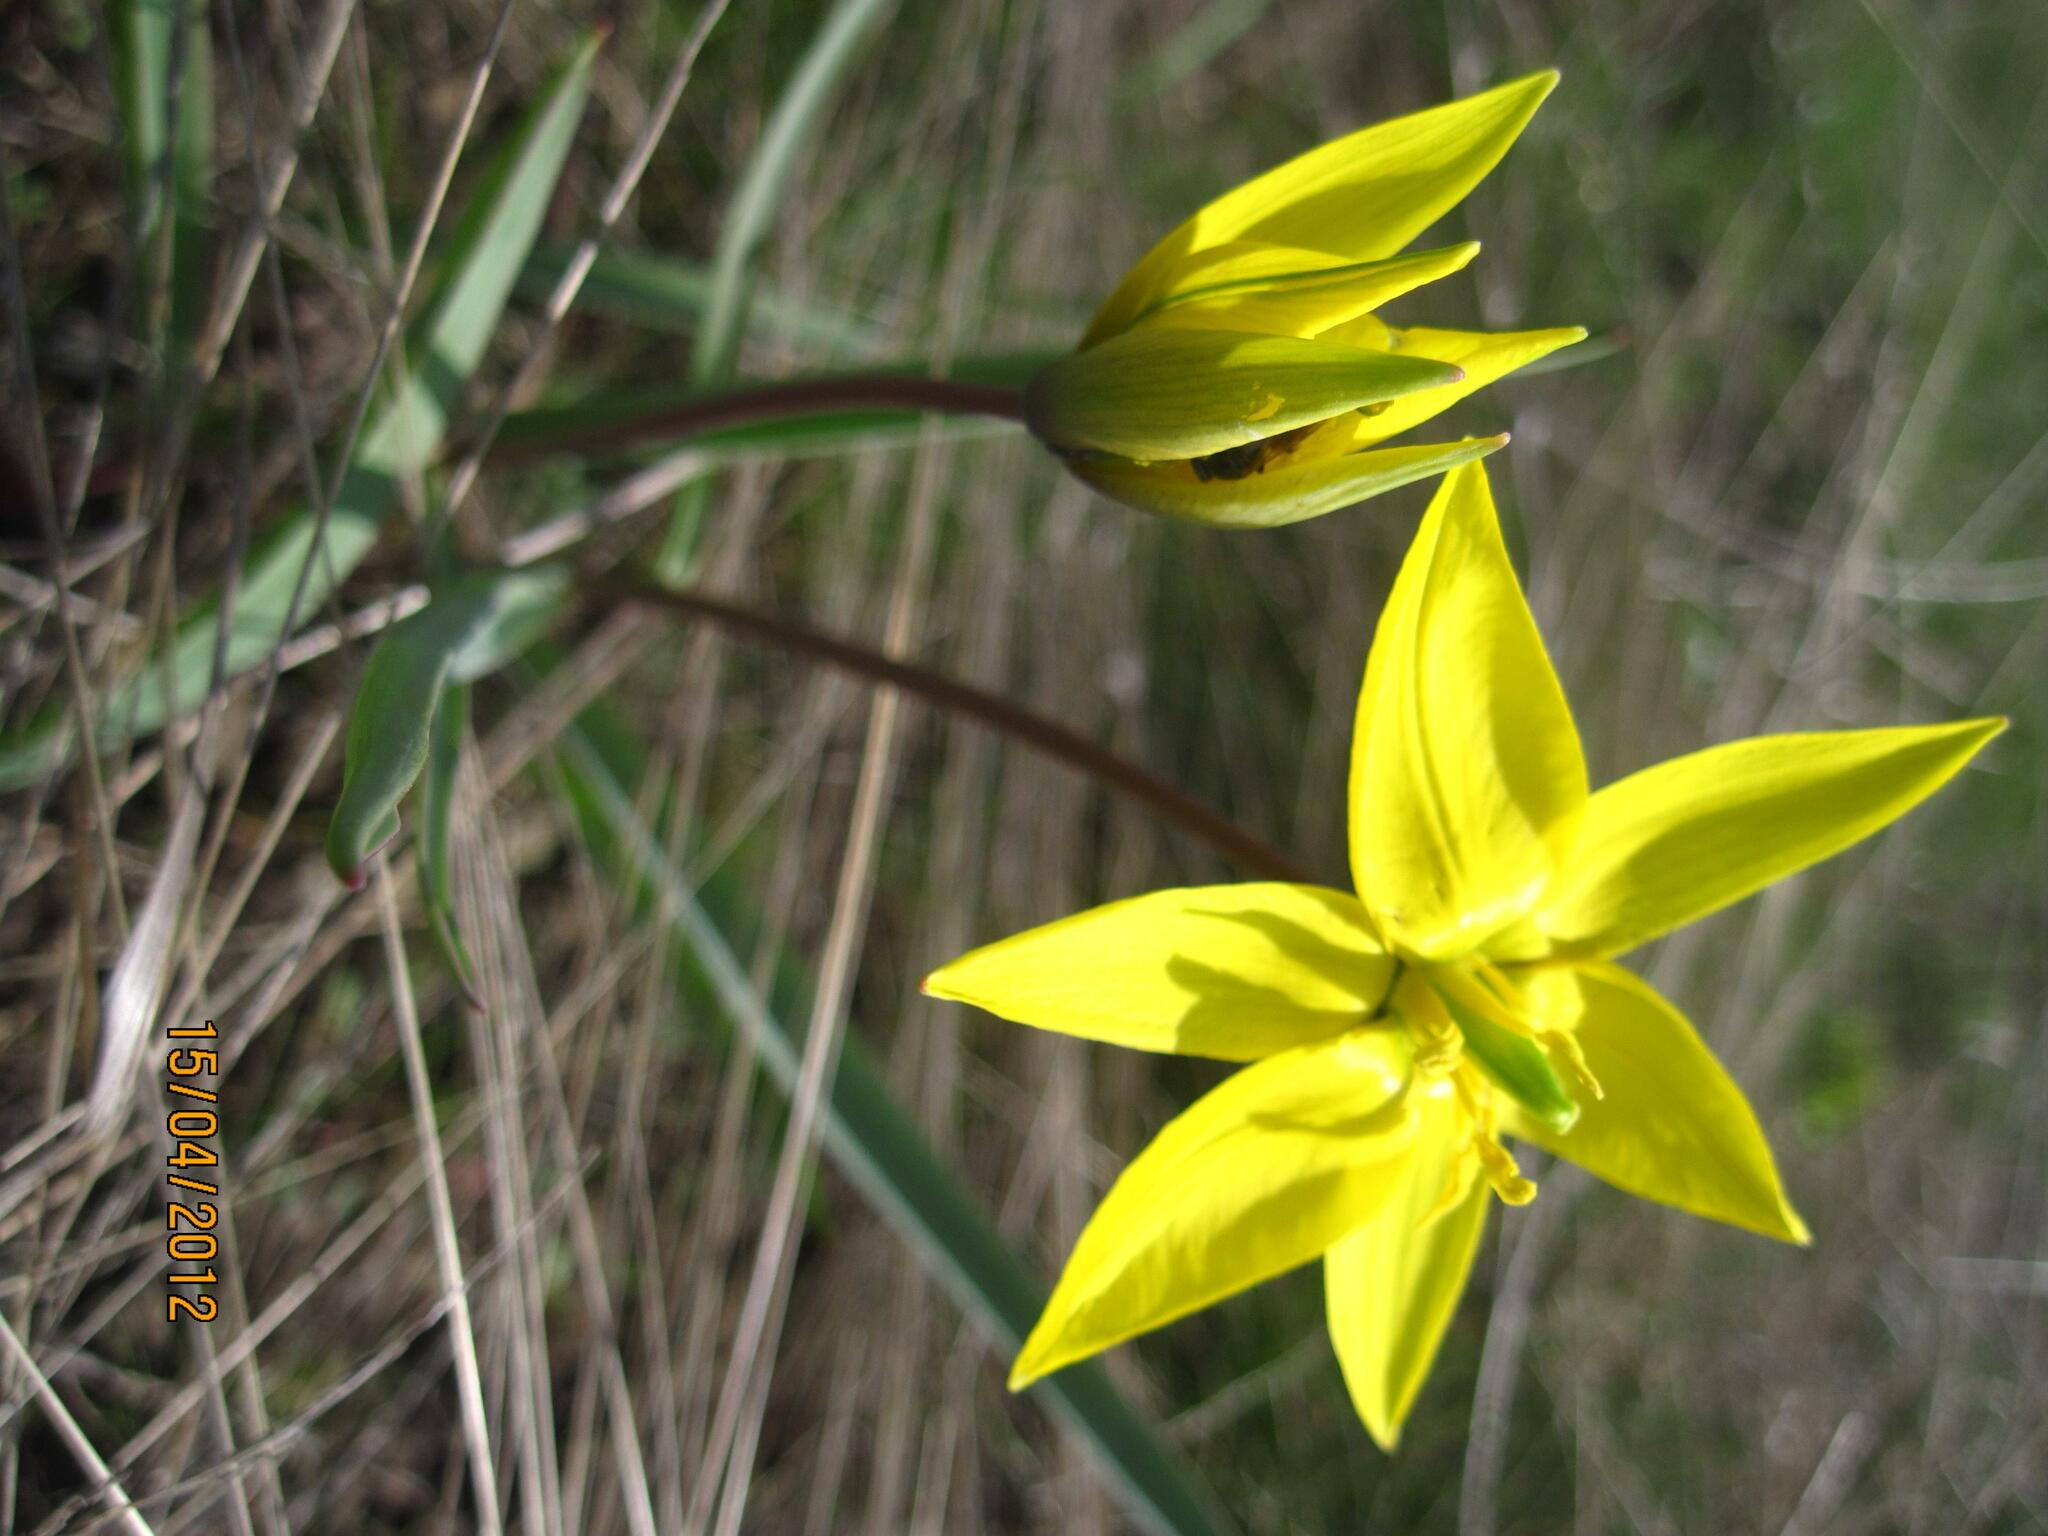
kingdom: Plantae
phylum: Tracheophyta
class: Liliopsida
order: Liliales
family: Liliaceae
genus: Tulipa
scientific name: Tulipa sylvestris
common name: Wild tulip
